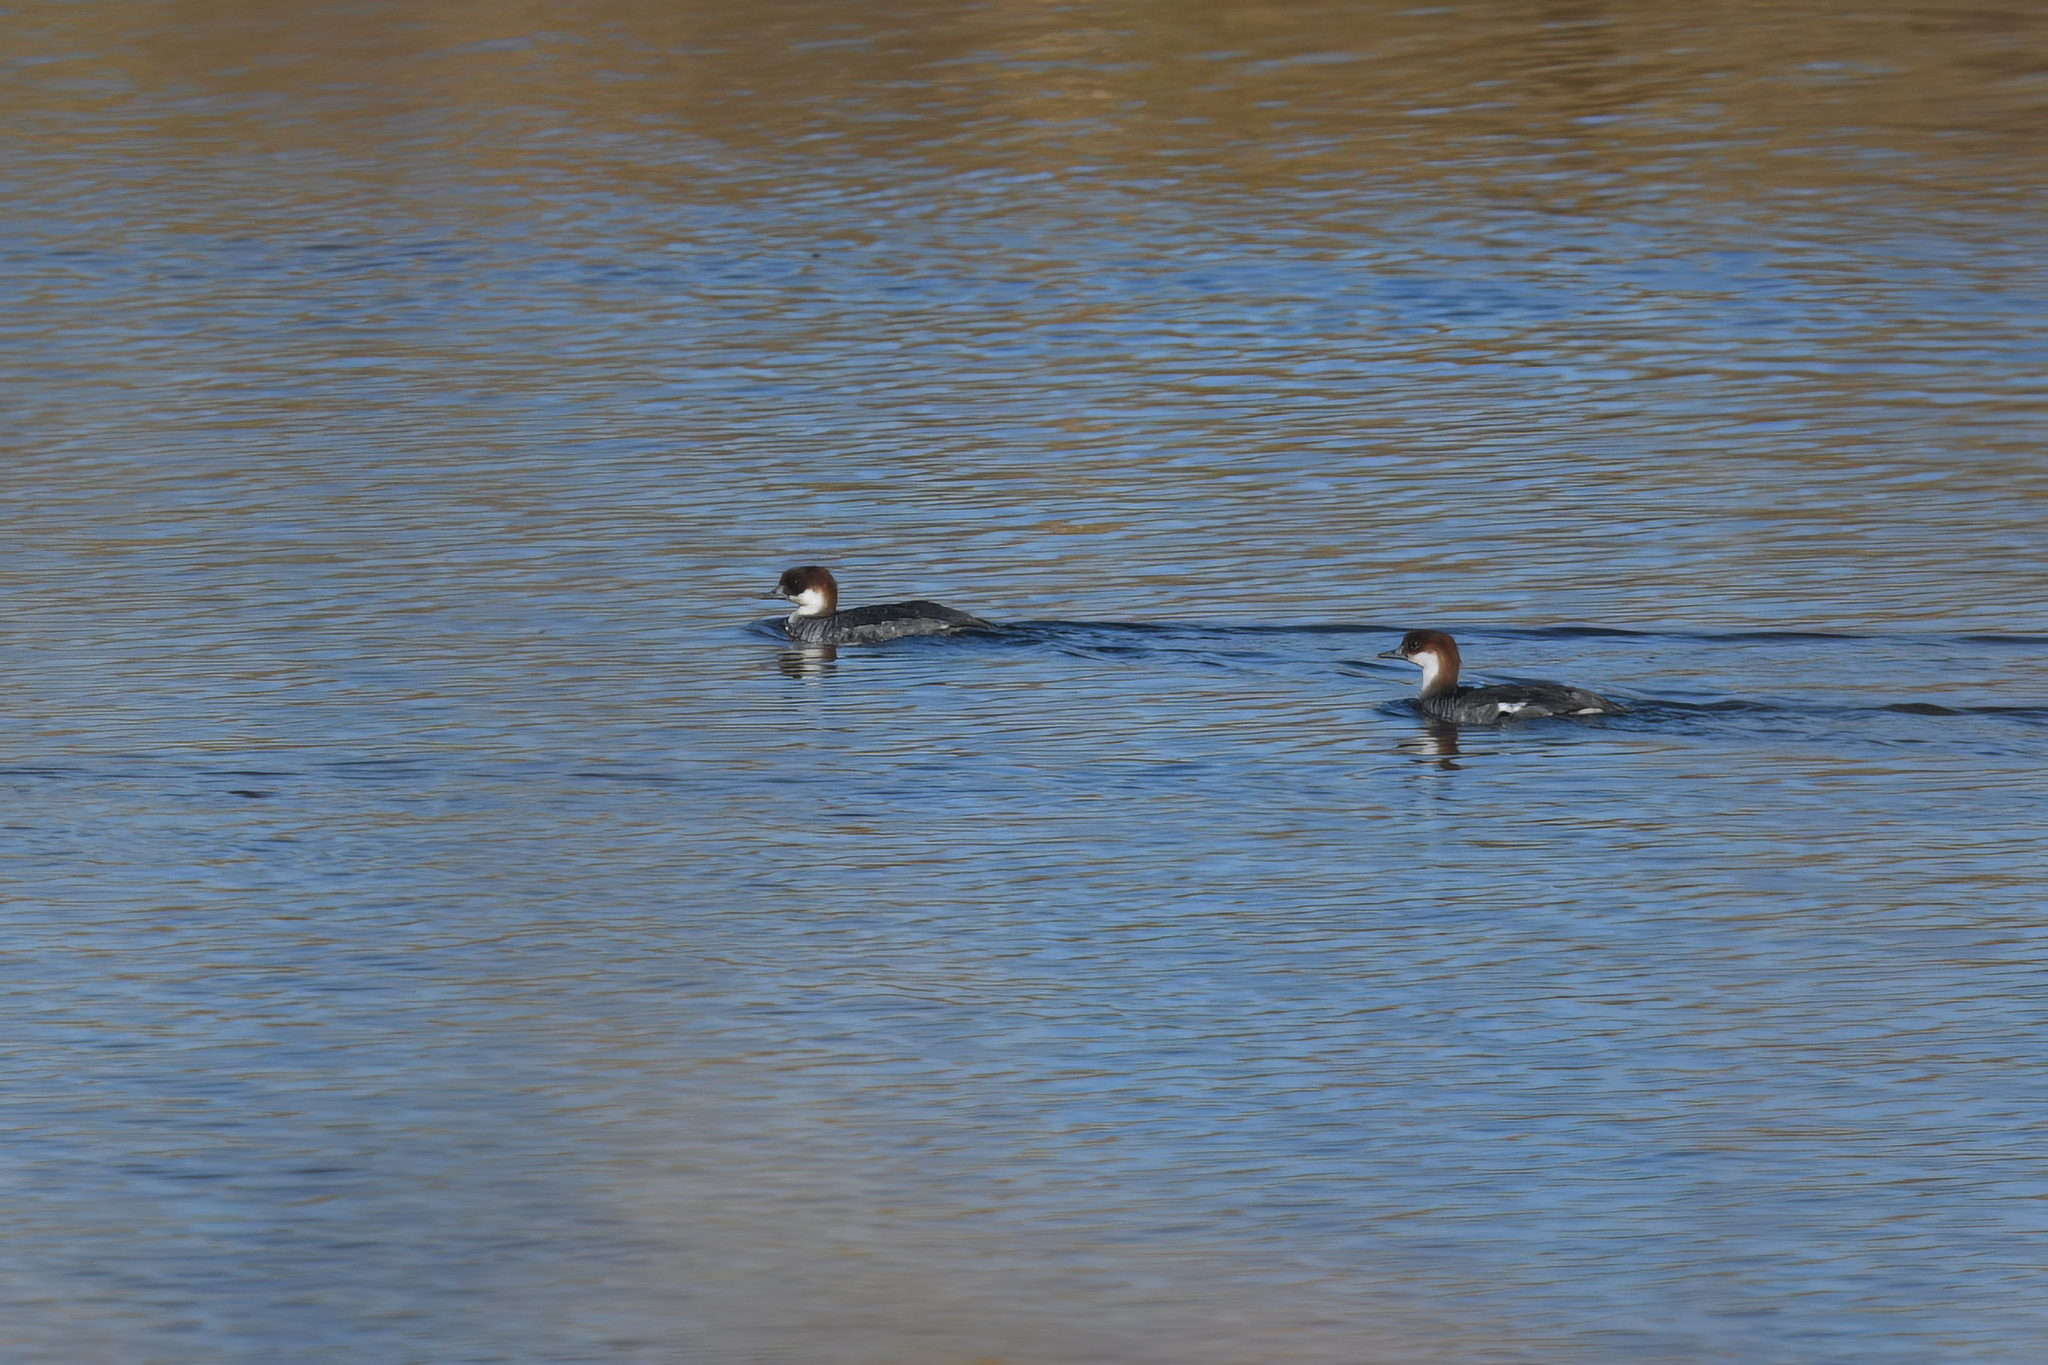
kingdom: Animalia
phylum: Chordata
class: Aves
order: Anseriformes
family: Anatidae
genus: Mergellus
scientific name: Mergellus albellus
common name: Smew
